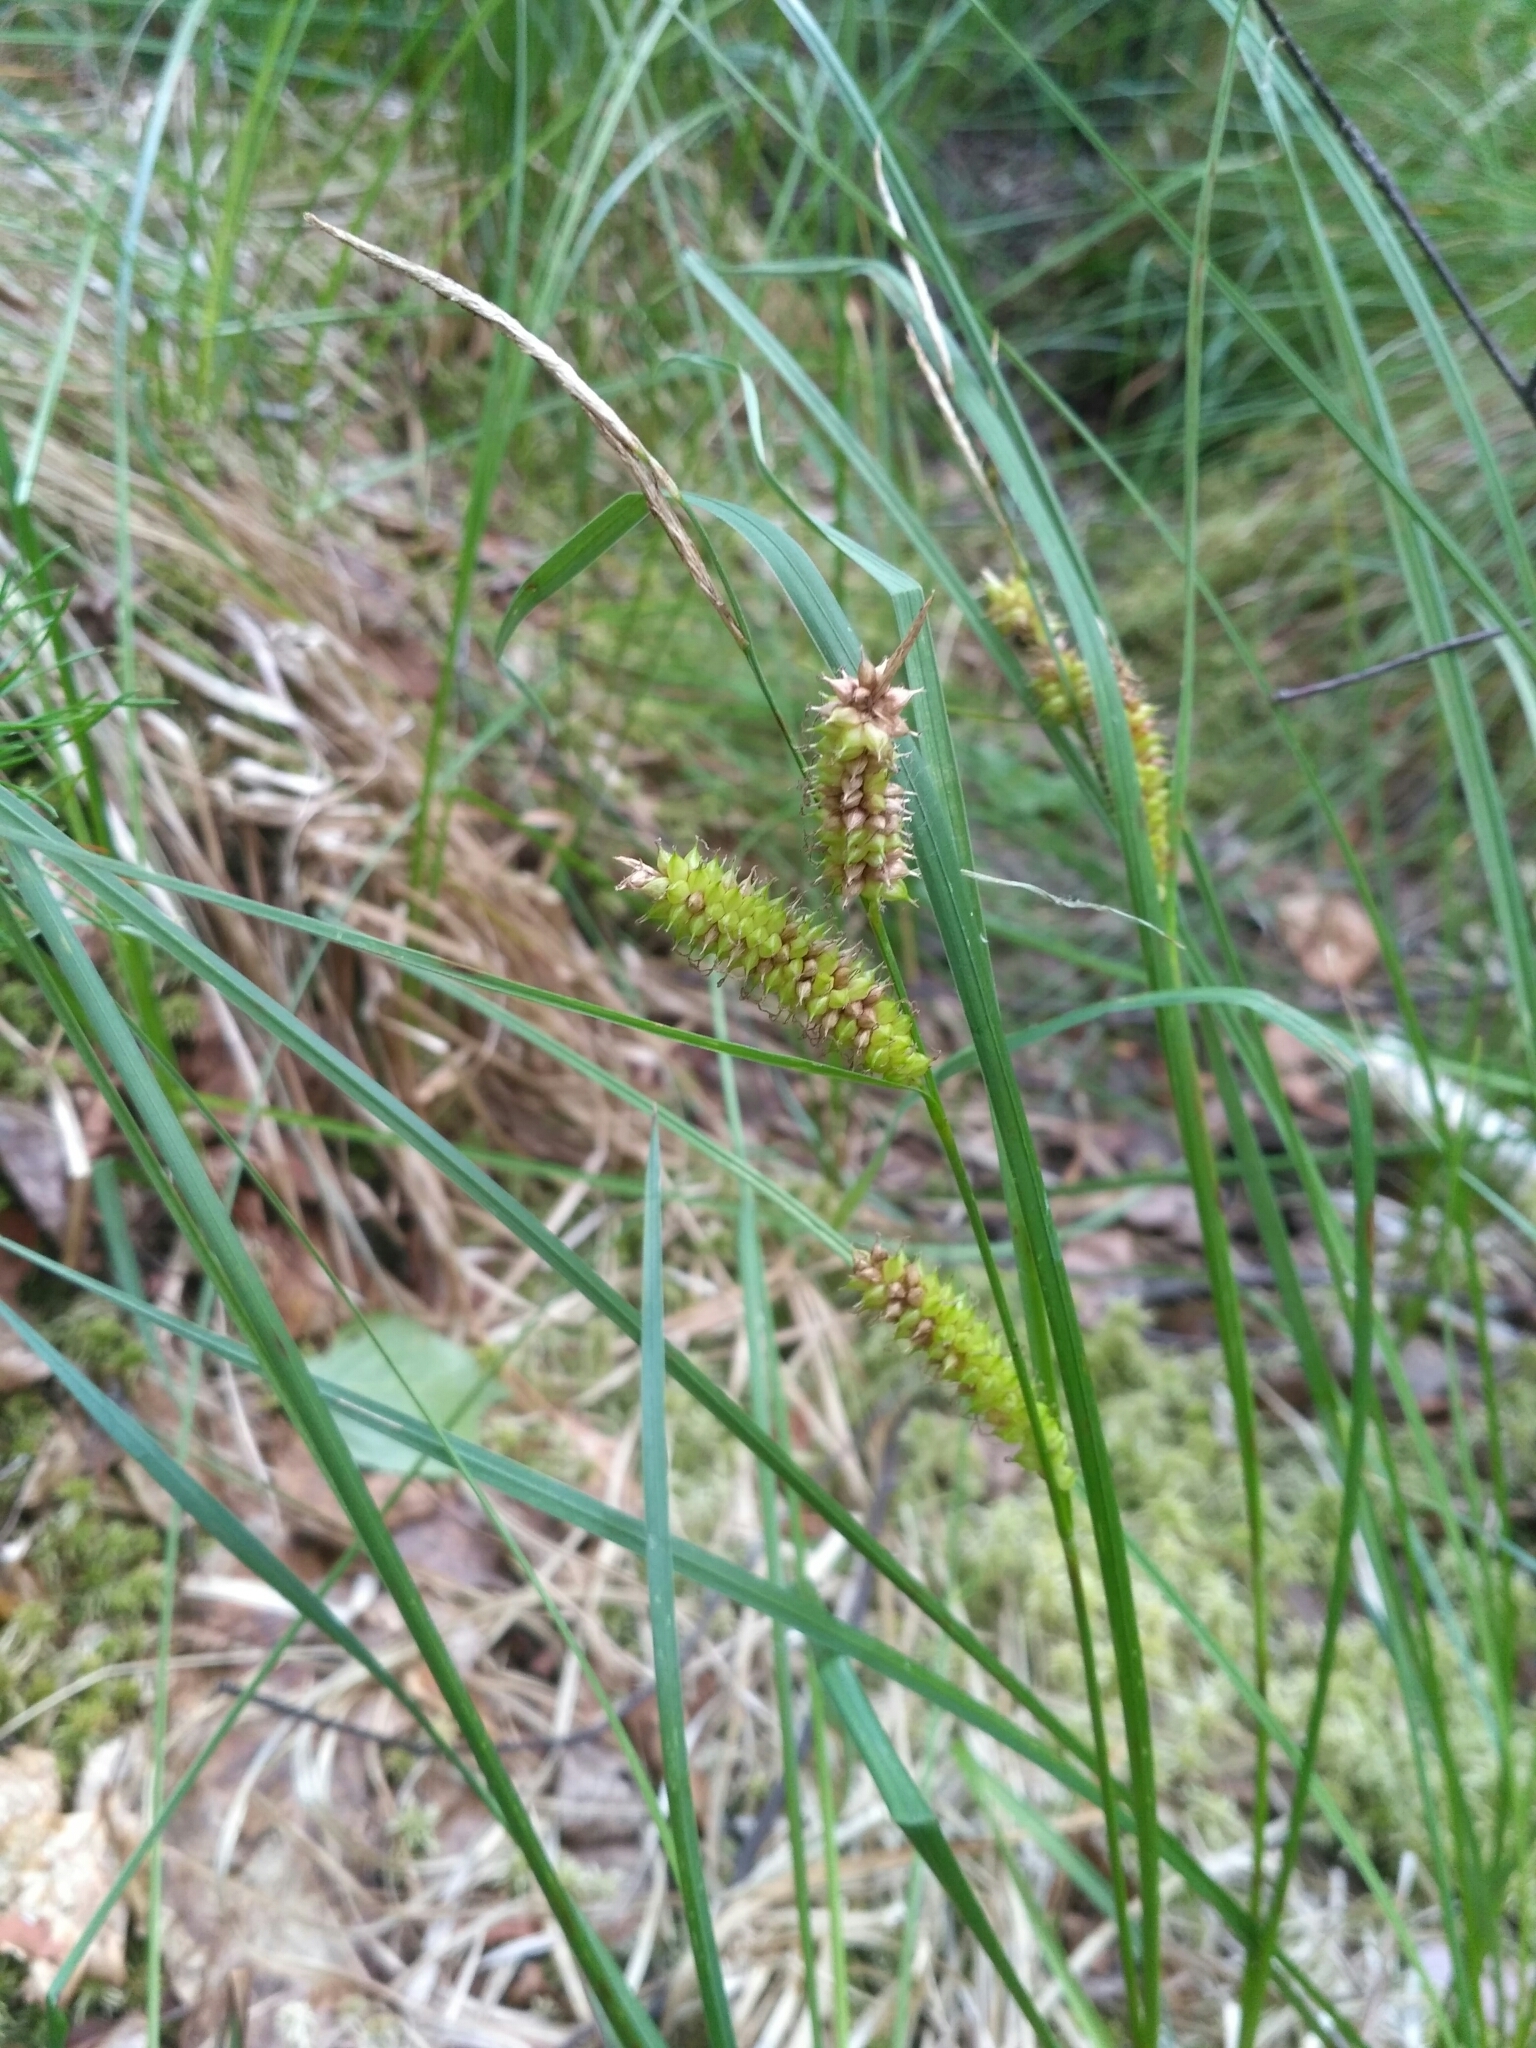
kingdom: Plantae
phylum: Tracheophyta
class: Liliopsida
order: Poales
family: Cyperaceae
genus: Carex
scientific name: Carex rostrata
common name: Bottle sedge
